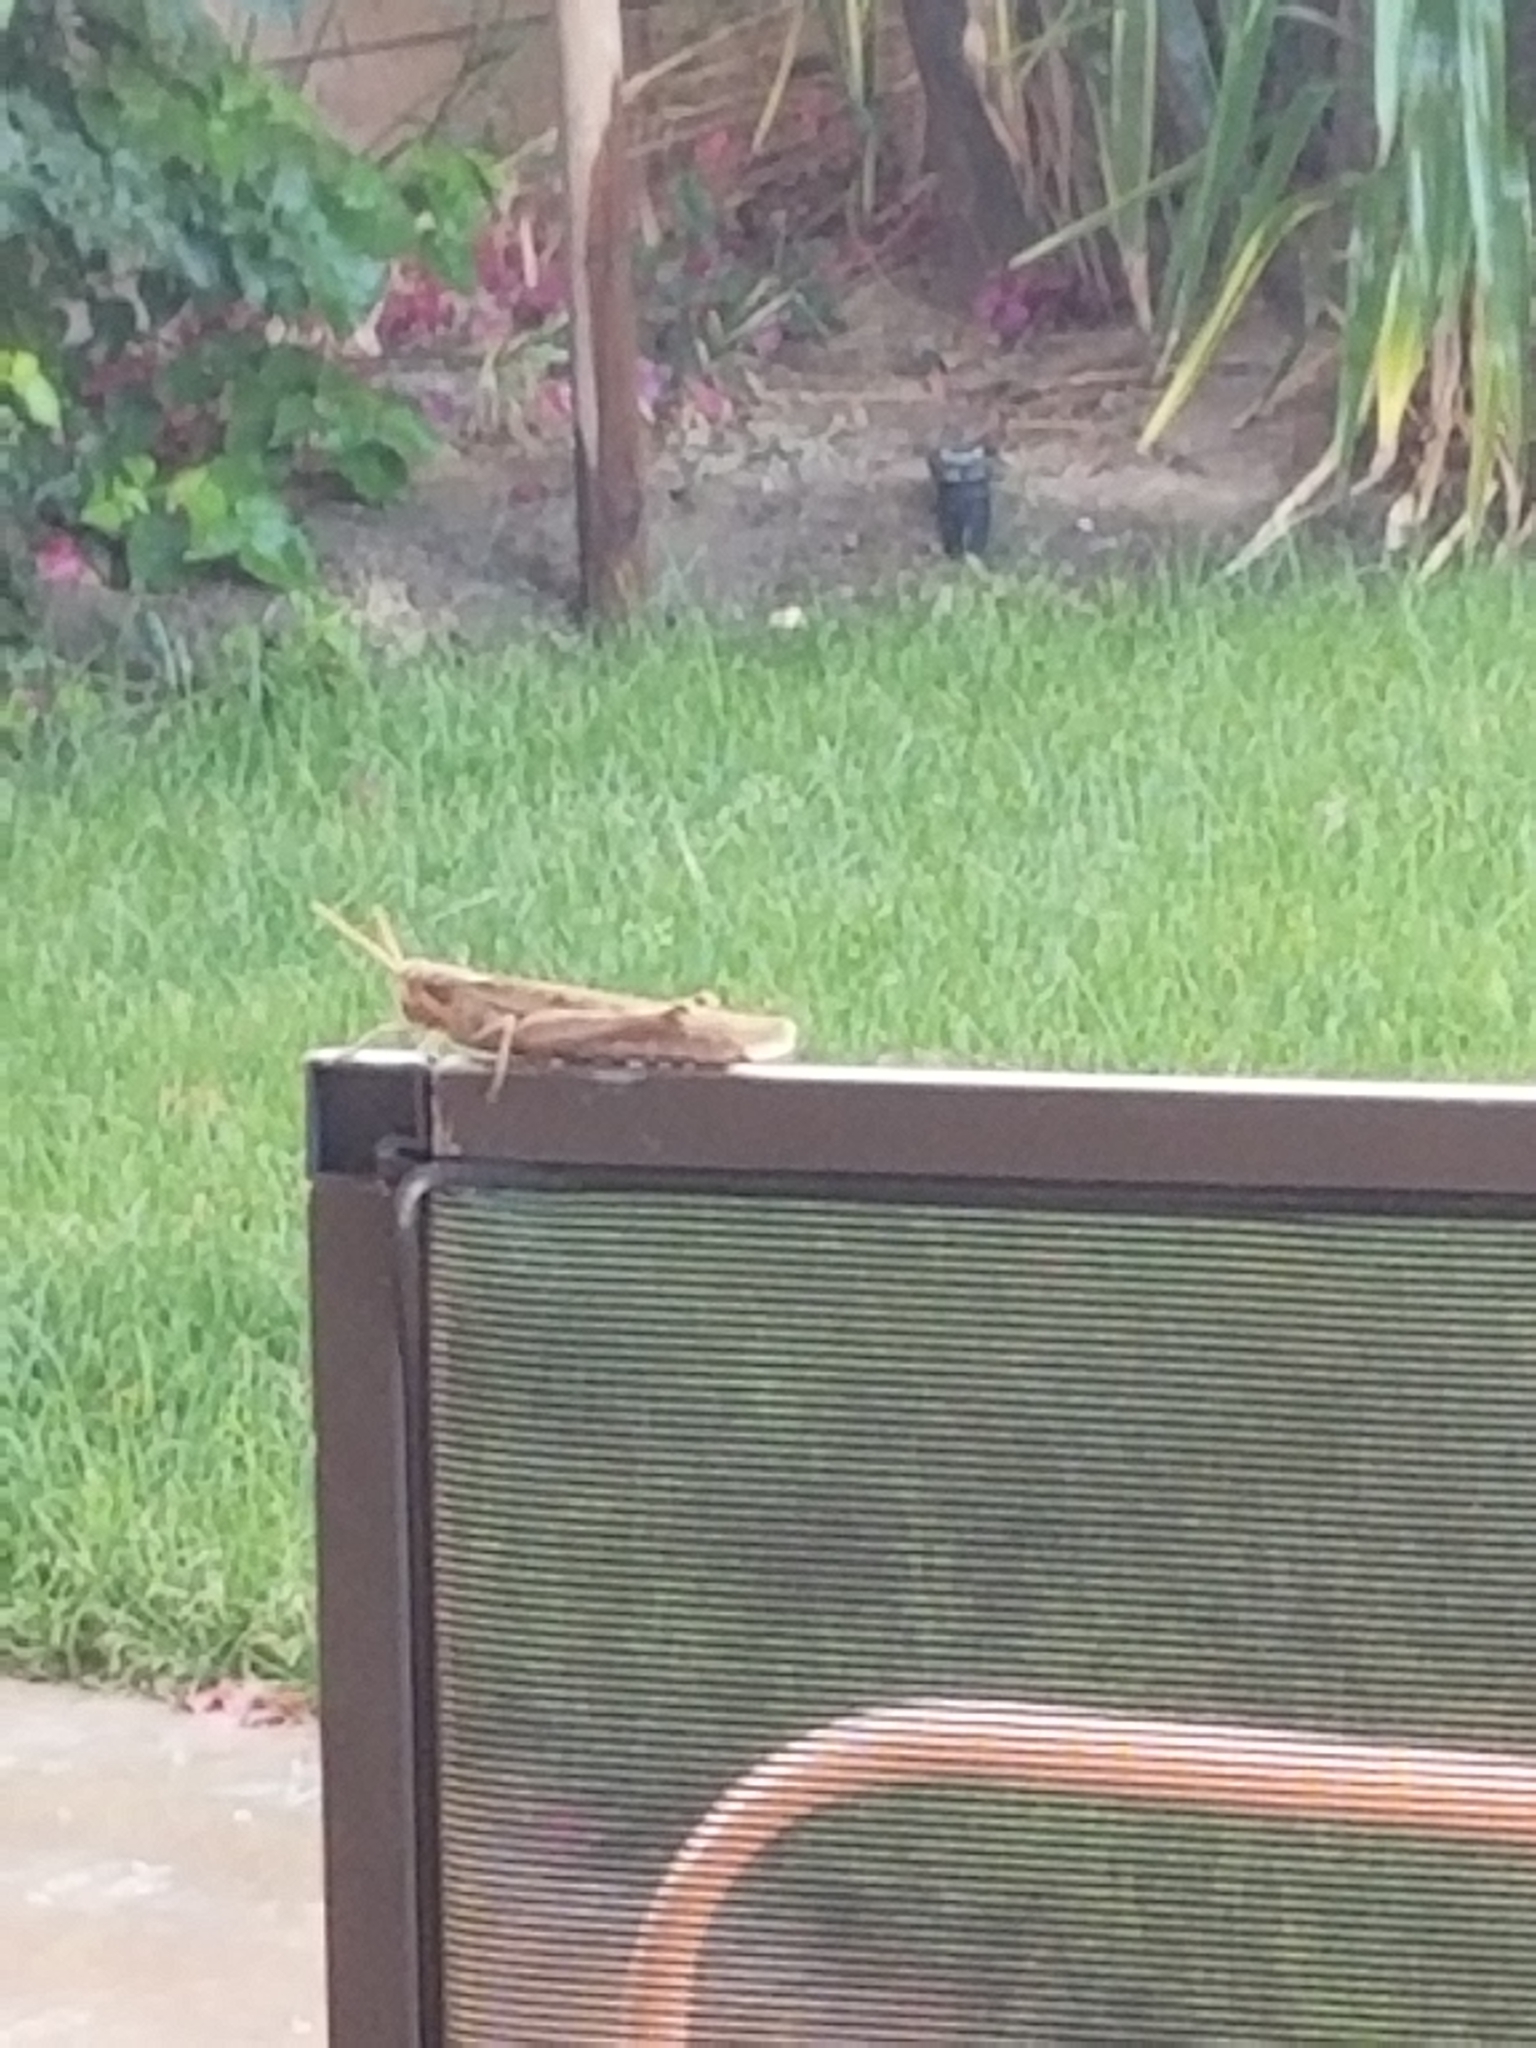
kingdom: Animalia
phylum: Arthropoda
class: Insecta
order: Orthoptera
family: Acrididae
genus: Schistocerca
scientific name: Schistocerca nitens
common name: Vagrant grasshopper
